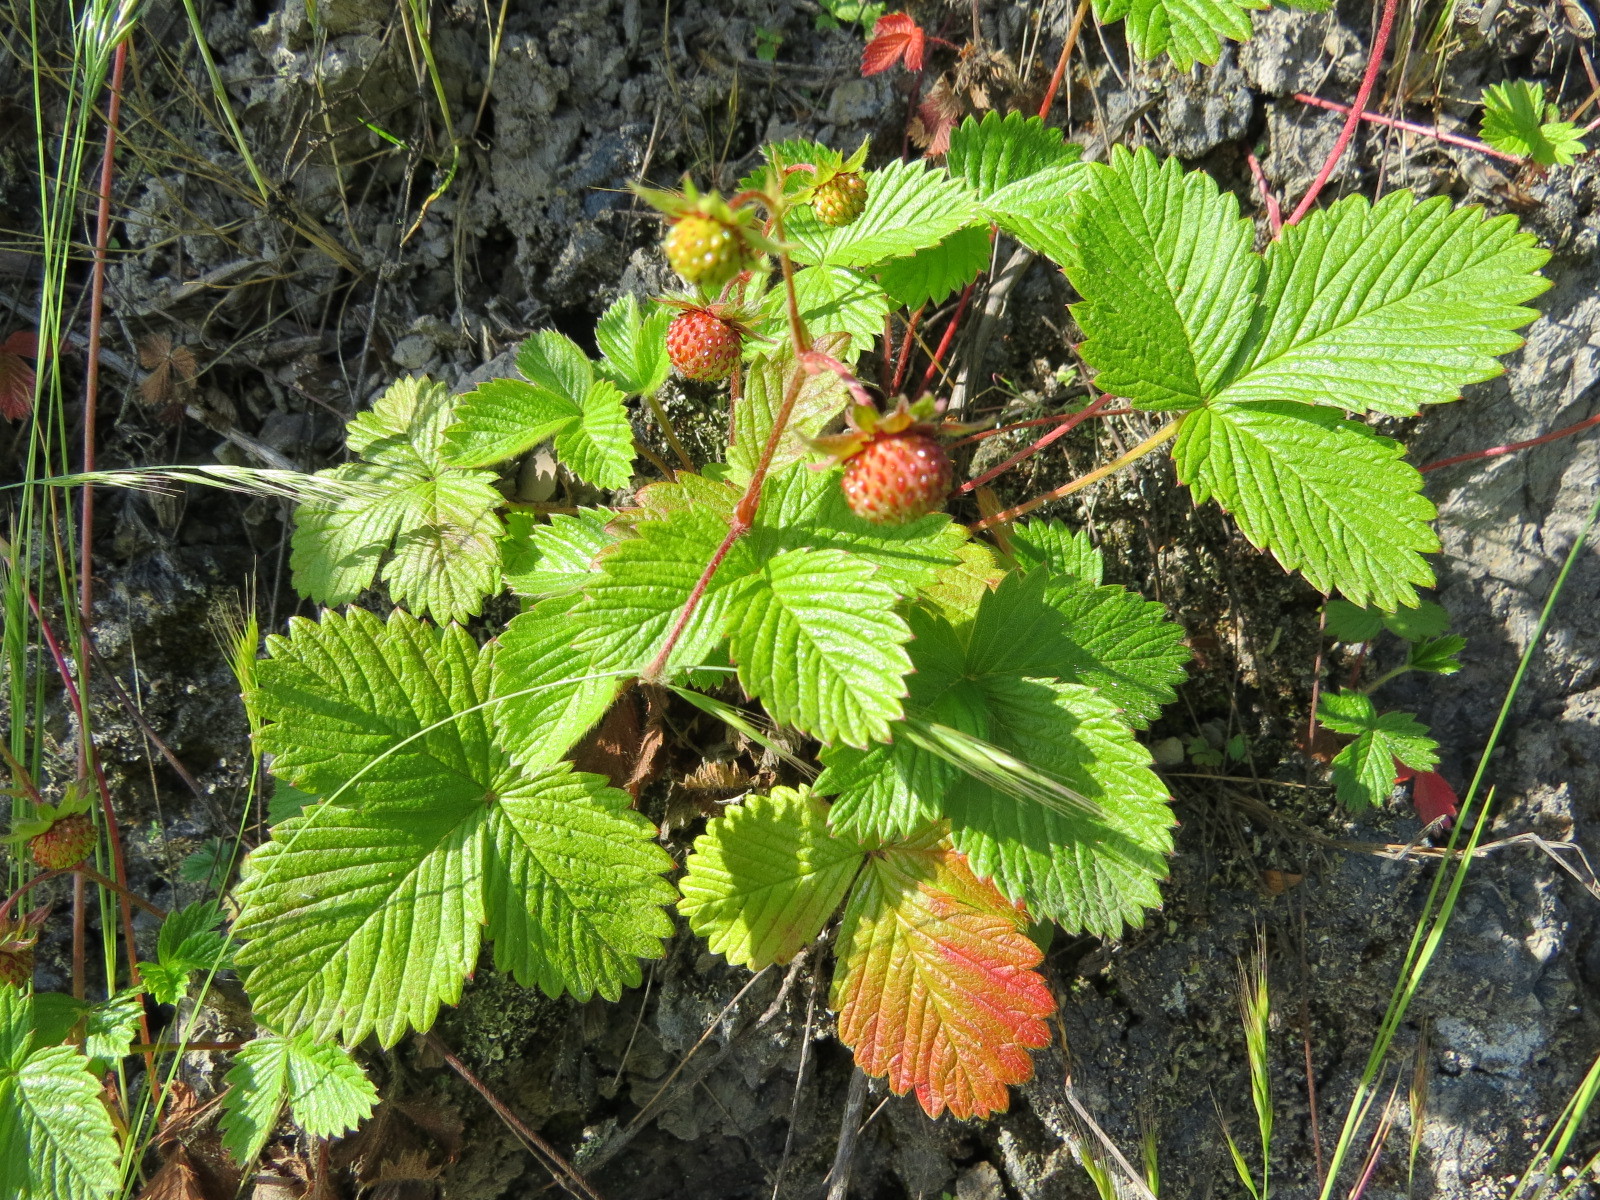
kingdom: Plantae
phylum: Tracheophyta
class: Magnoliopsida
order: Rosales
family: Rosaceae
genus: Fragaria
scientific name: Fragaria vesca
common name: Wild strawberry
